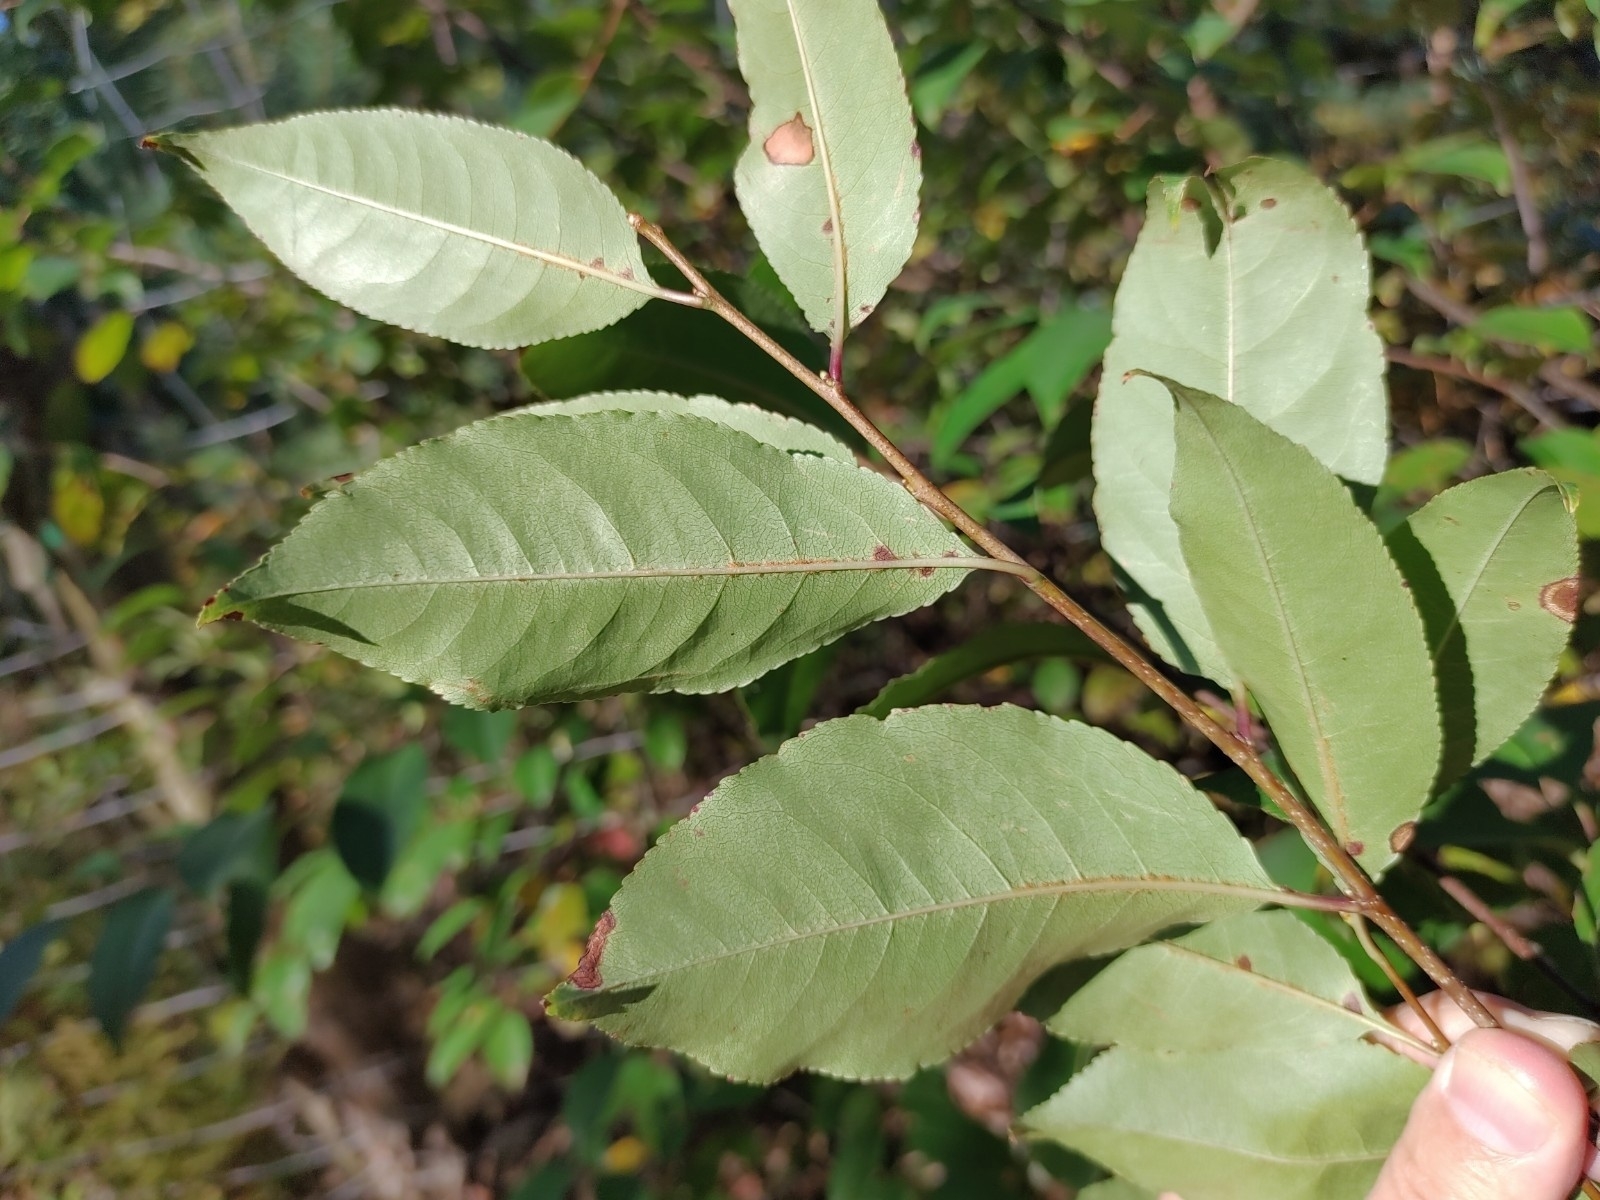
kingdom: Plantae
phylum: Tracheophyta
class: Magnoliopsida
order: Rosales
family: Rosaceae
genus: Prunus
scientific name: Prunus serotina
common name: Black cherry
